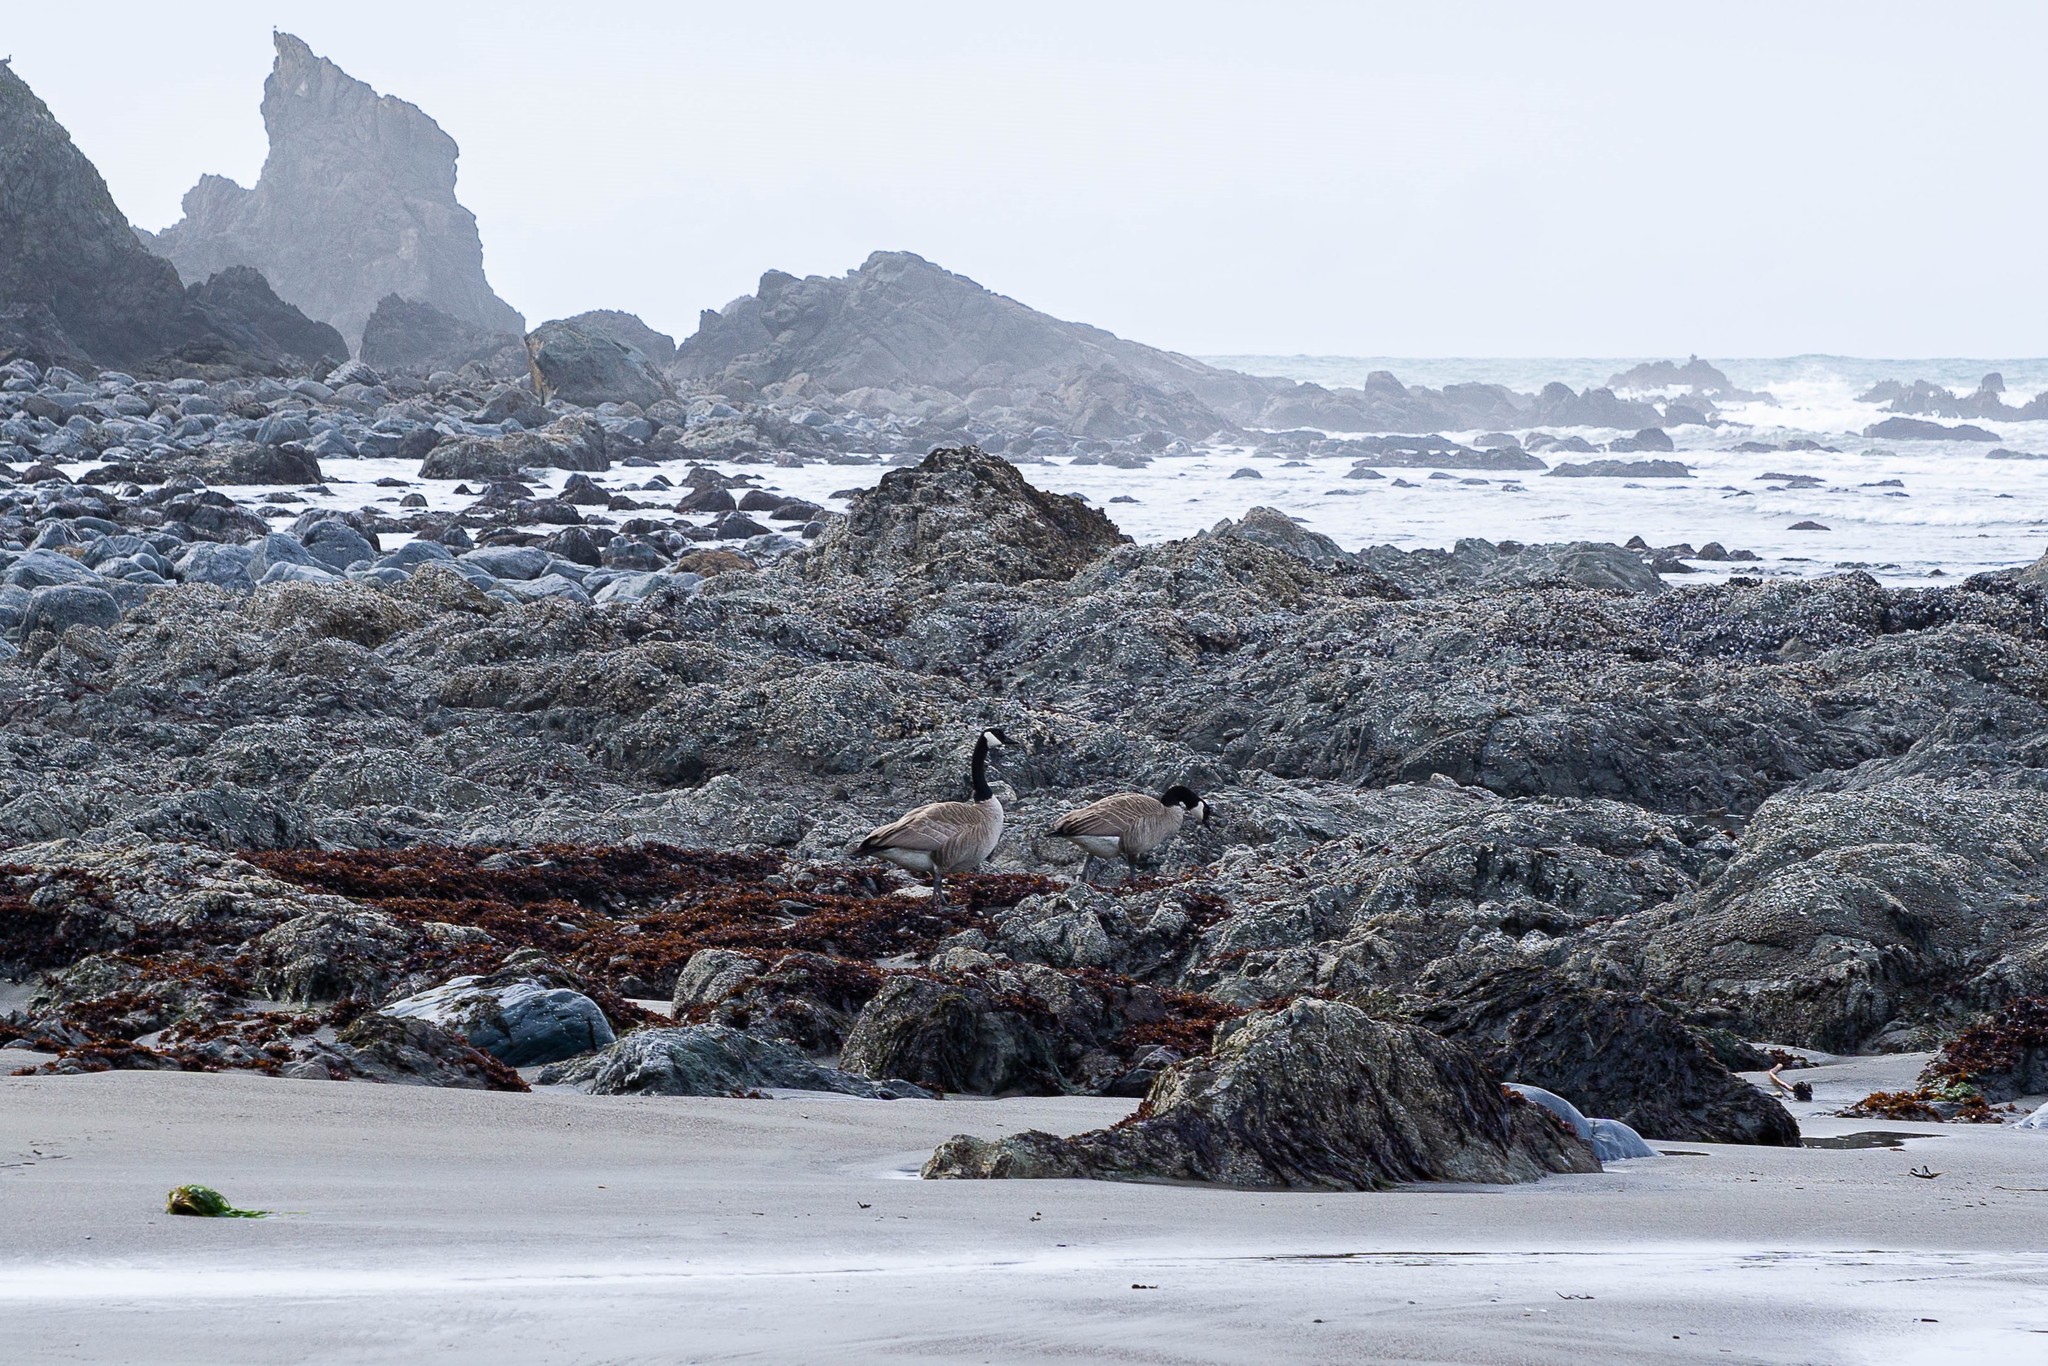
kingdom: Animalia
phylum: Chordata
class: Aves
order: Anseriformes
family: Anatidae
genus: Branta
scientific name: Branta canadensis
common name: Canada goose
